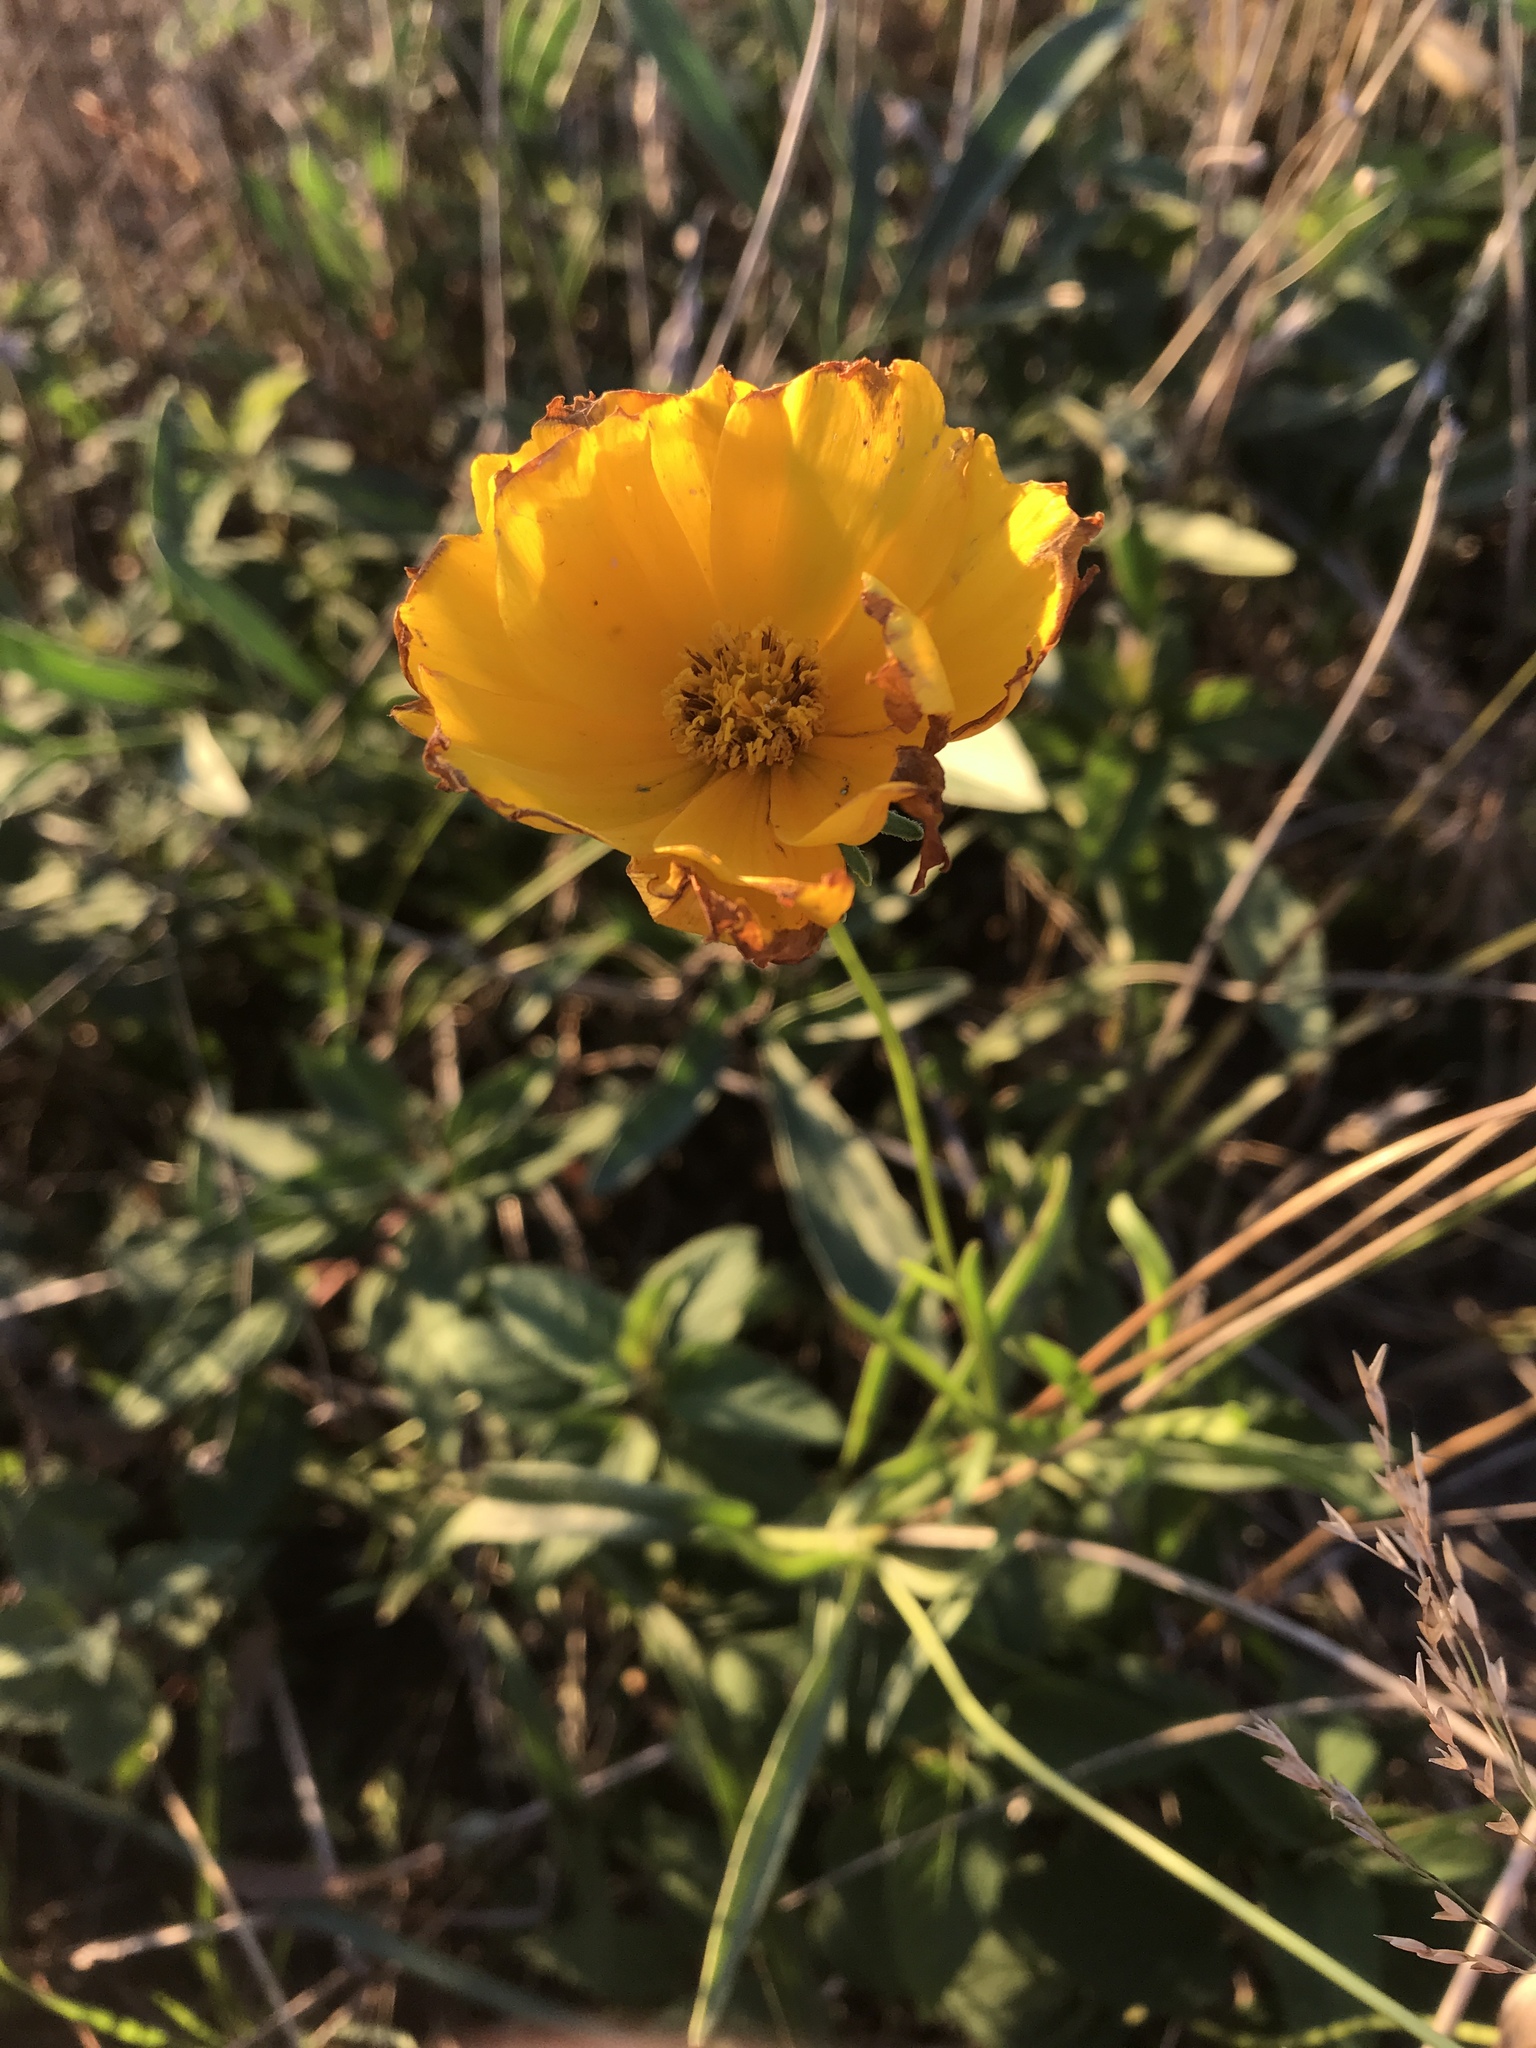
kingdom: Plantae
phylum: Tracheophyta
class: Magnoliopsida
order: Asterales
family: Asteraceae
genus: Coreopsis
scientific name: Coreopsis lanceolata
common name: Garden coreopsis
